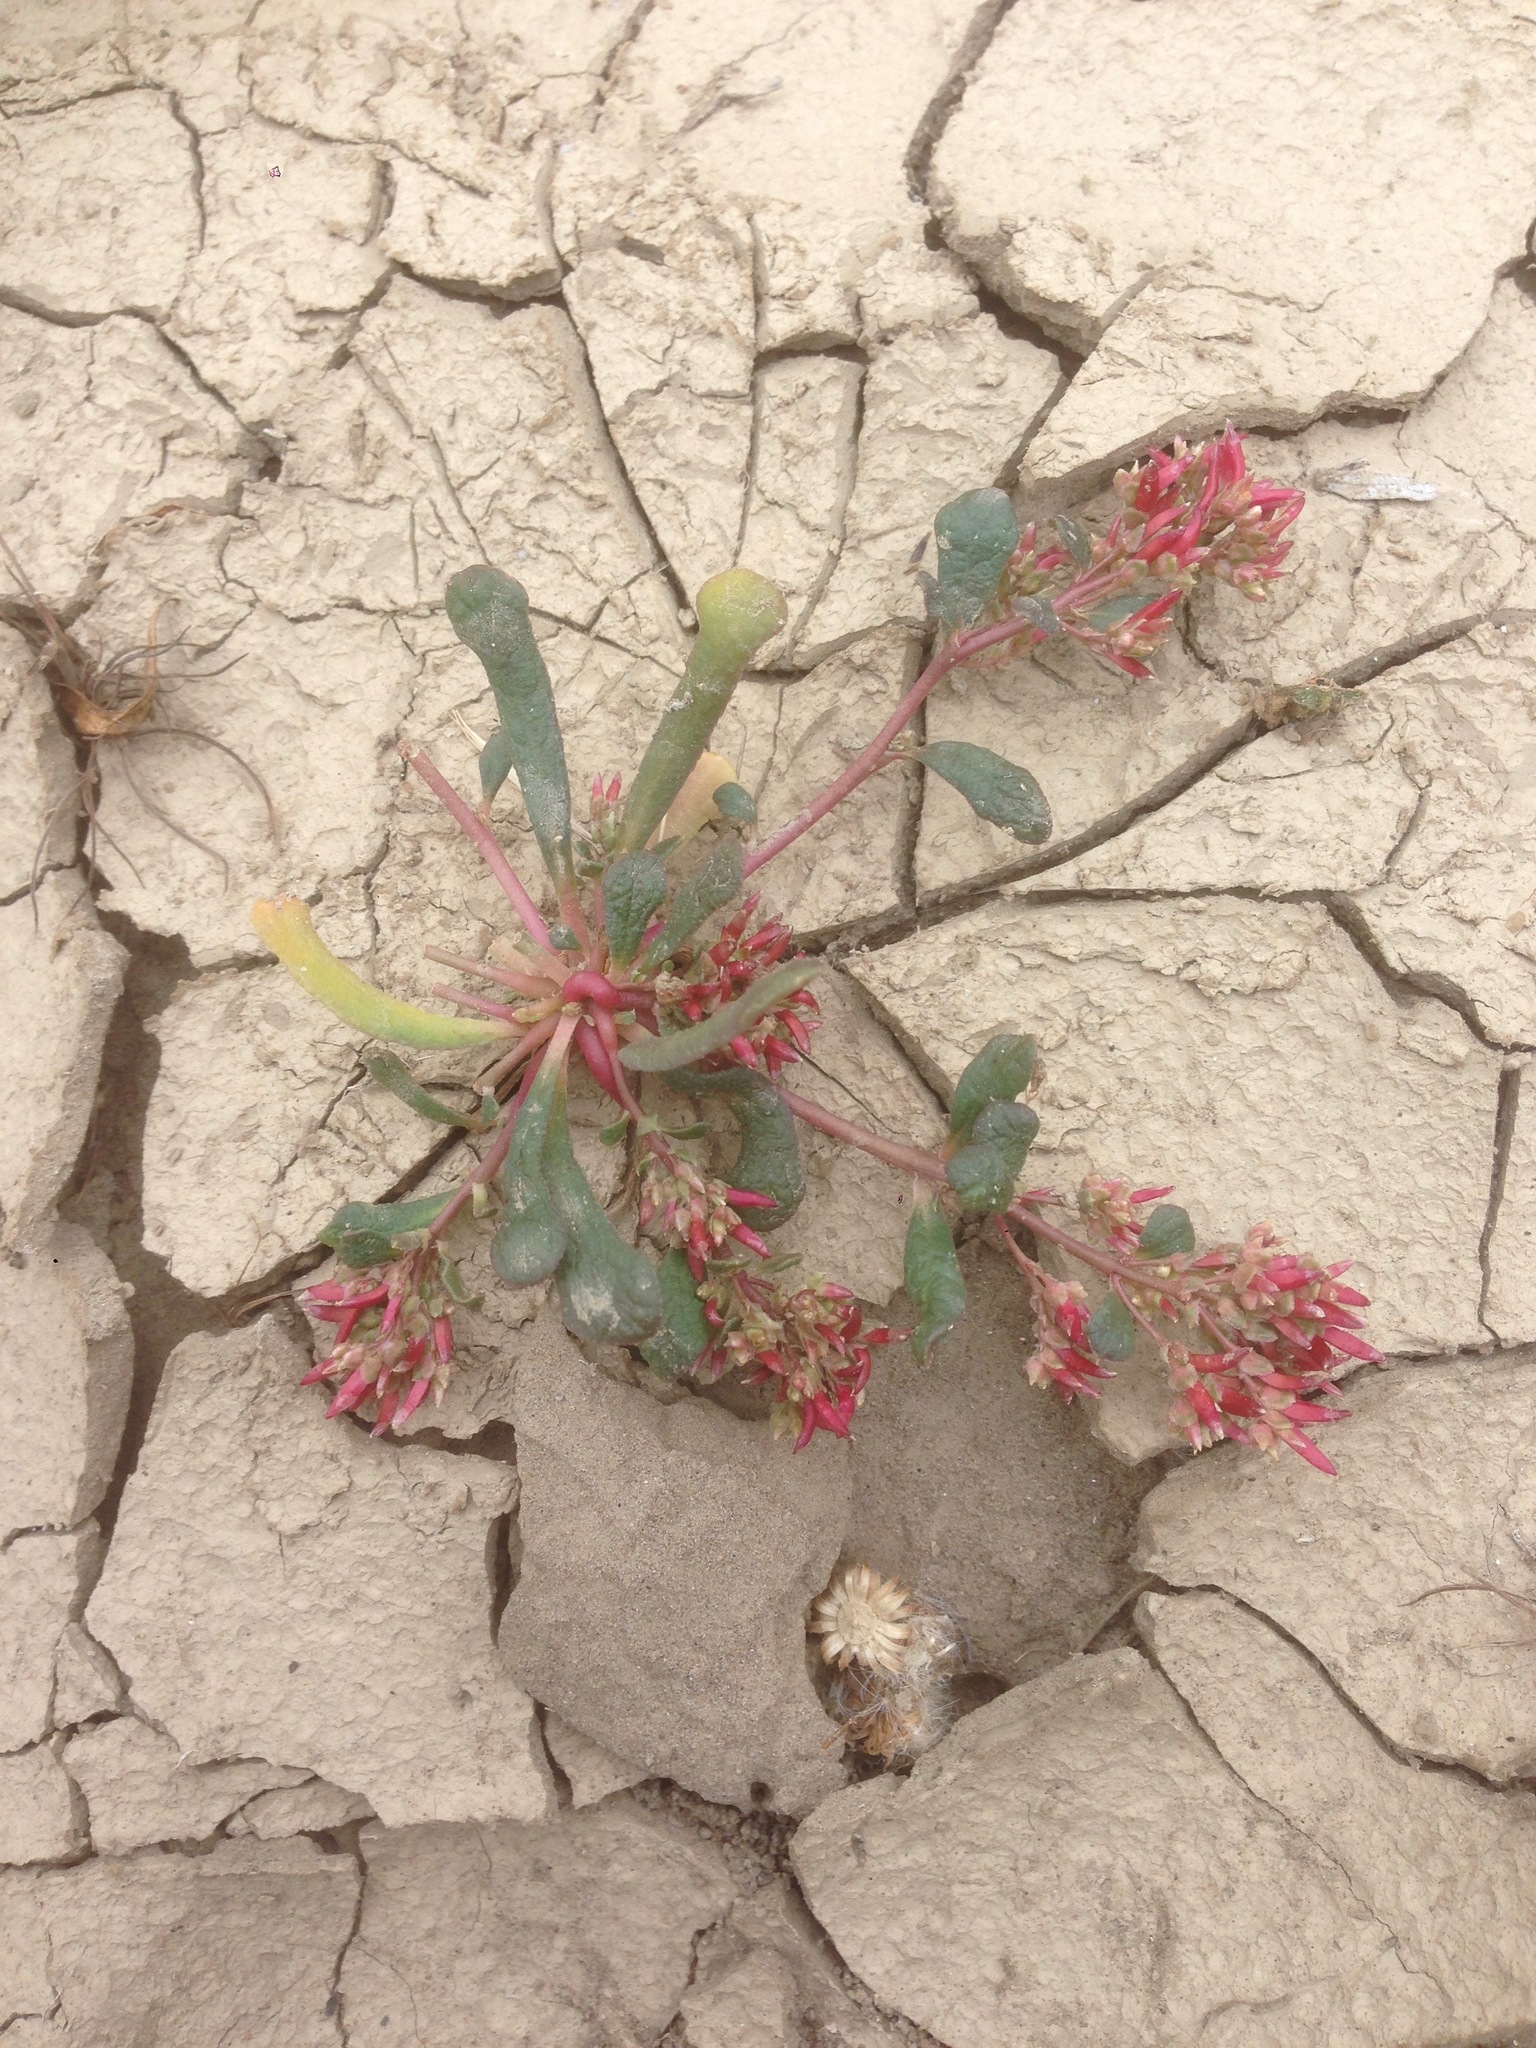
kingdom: Plantae
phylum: Tracheophyta
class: Magnoliopsida
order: Caryophyllales
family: Montiaceae
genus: Calyptridium
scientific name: Calyptridium monandrum
